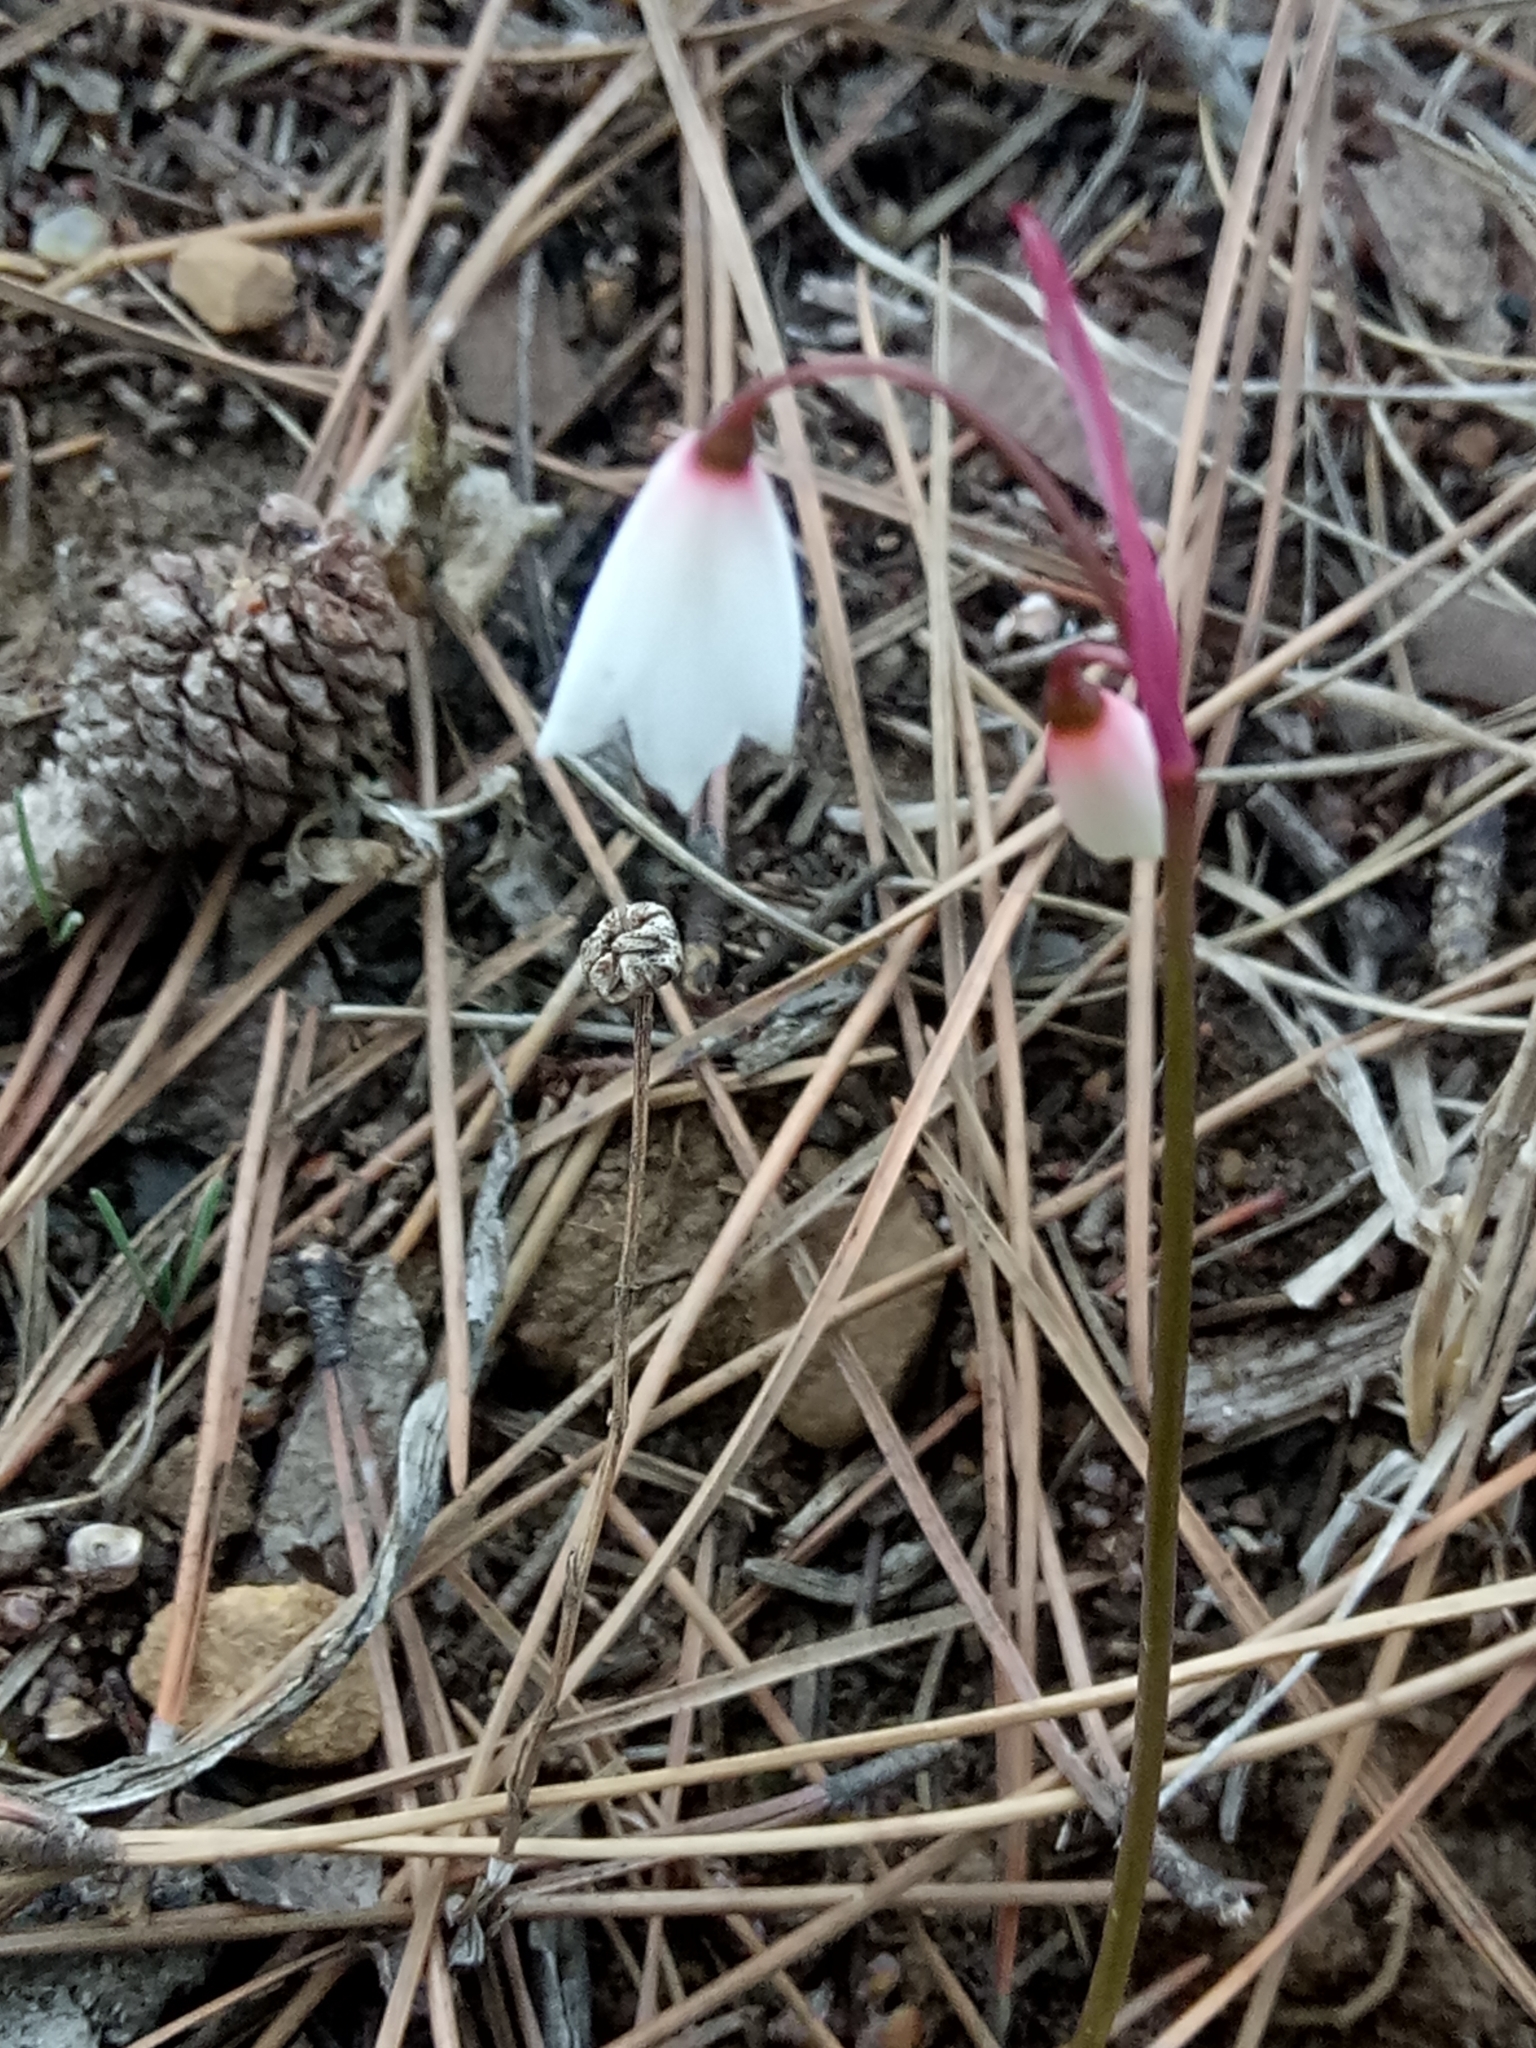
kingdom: Plantae
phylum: Tracheophyta
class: Liliopsida
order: Asparagales
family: Amaryllidaceae
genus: Acis
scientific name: Acis autumnalis
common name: Autumn snowflake
